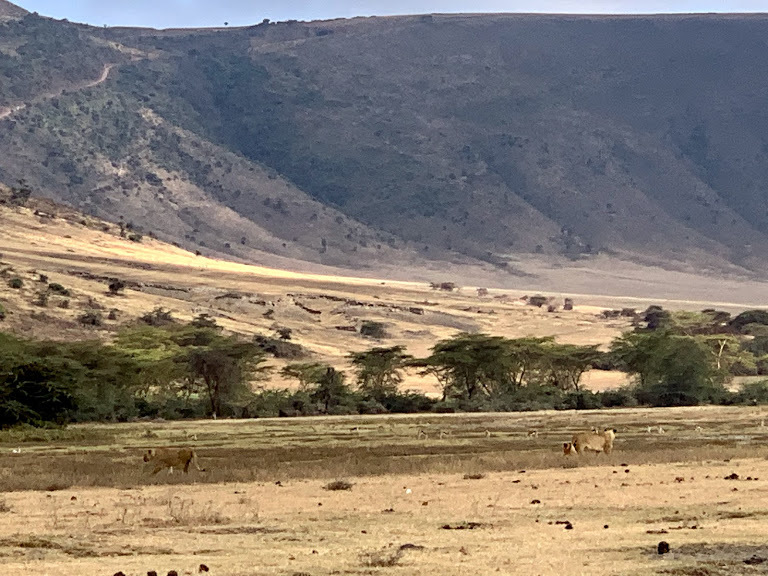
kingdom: Animalia
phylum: Chordata
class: Mammalia
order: Carnivora
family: Felidae
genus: Panthera
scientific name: Panthera leo
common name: Lion
